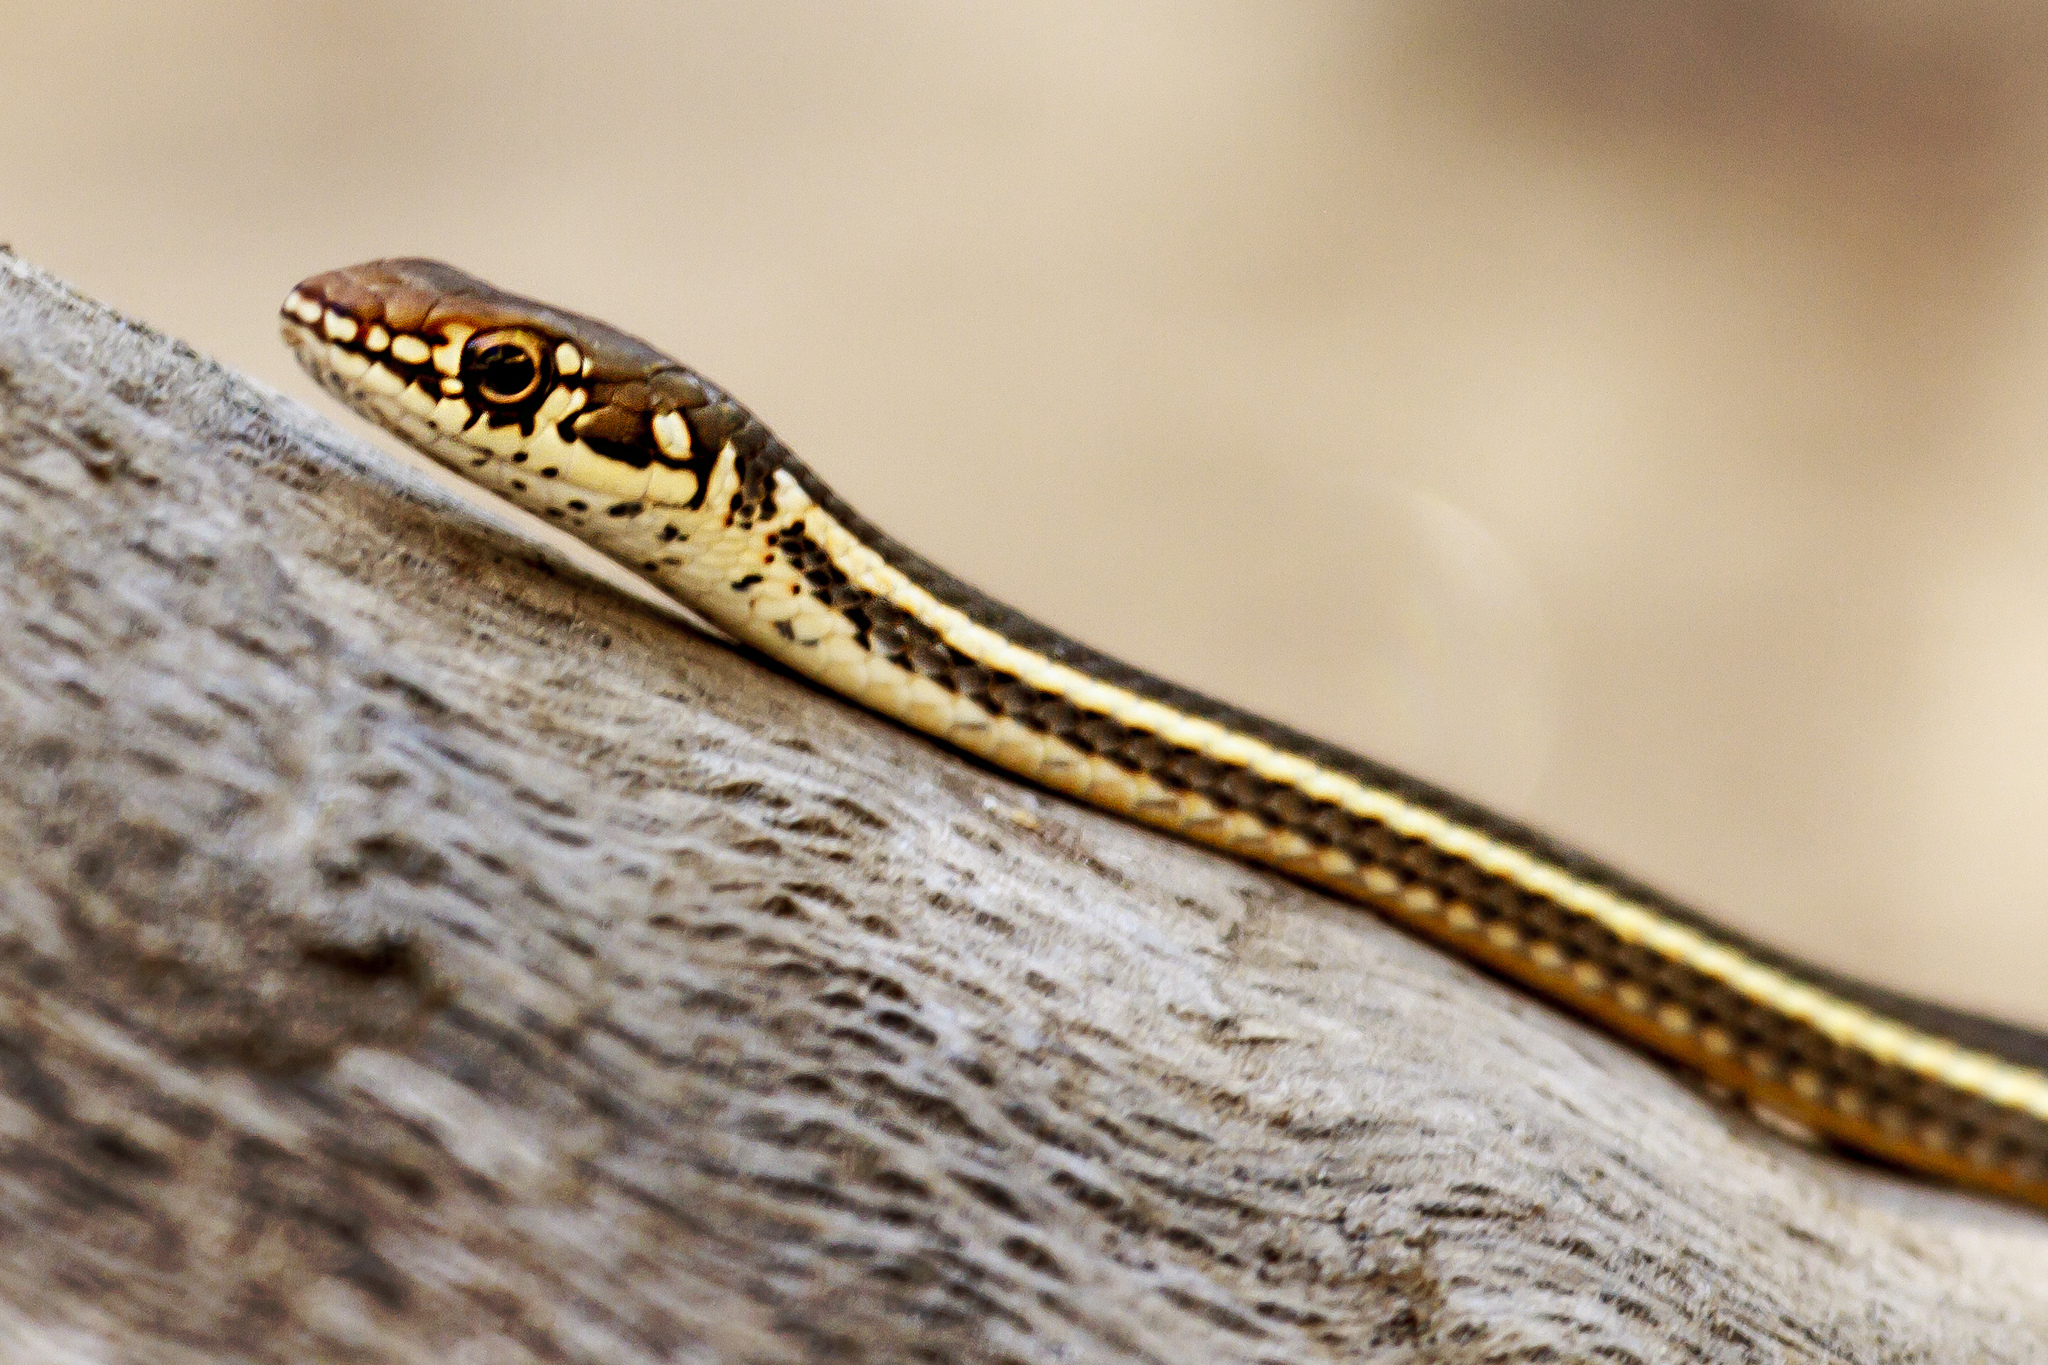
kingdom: Animalia
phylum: Chordata
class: Squamata
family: Colubridae
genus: Masticophis
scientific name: Masticophis lateralis
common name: Striped racer
